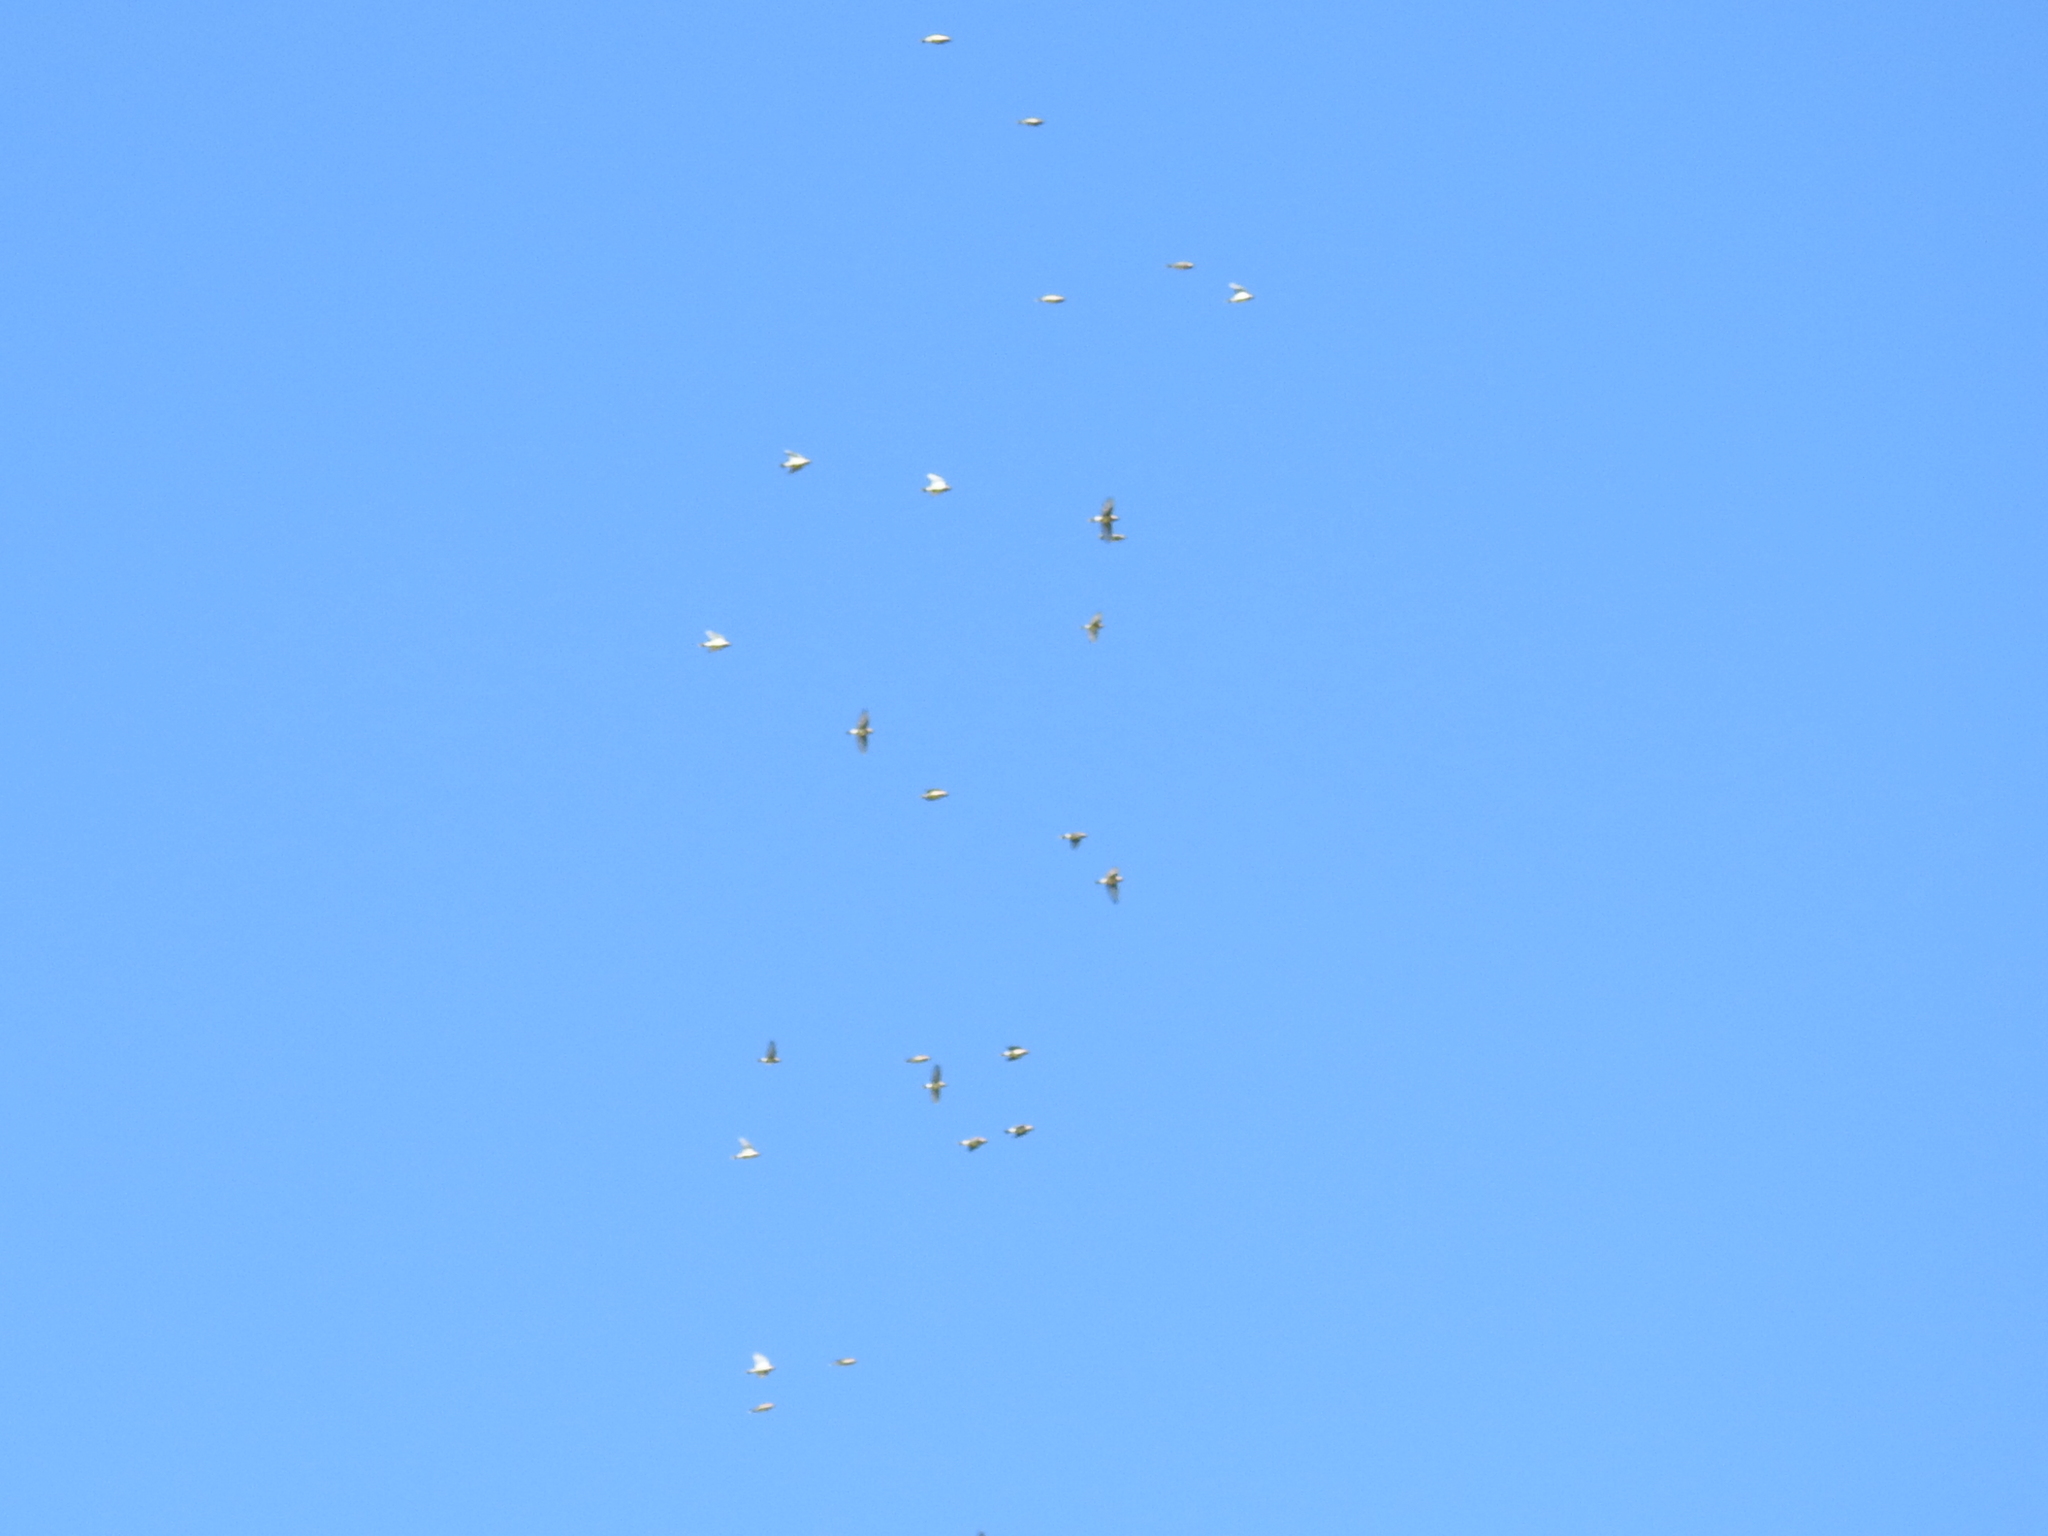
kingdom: Animalia
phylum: Chordata
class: Aves
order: Passeriformes
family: Bombycillidae
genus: Bombycilla
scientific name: Bombycilla cedrorum
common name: Cedar waxwing
